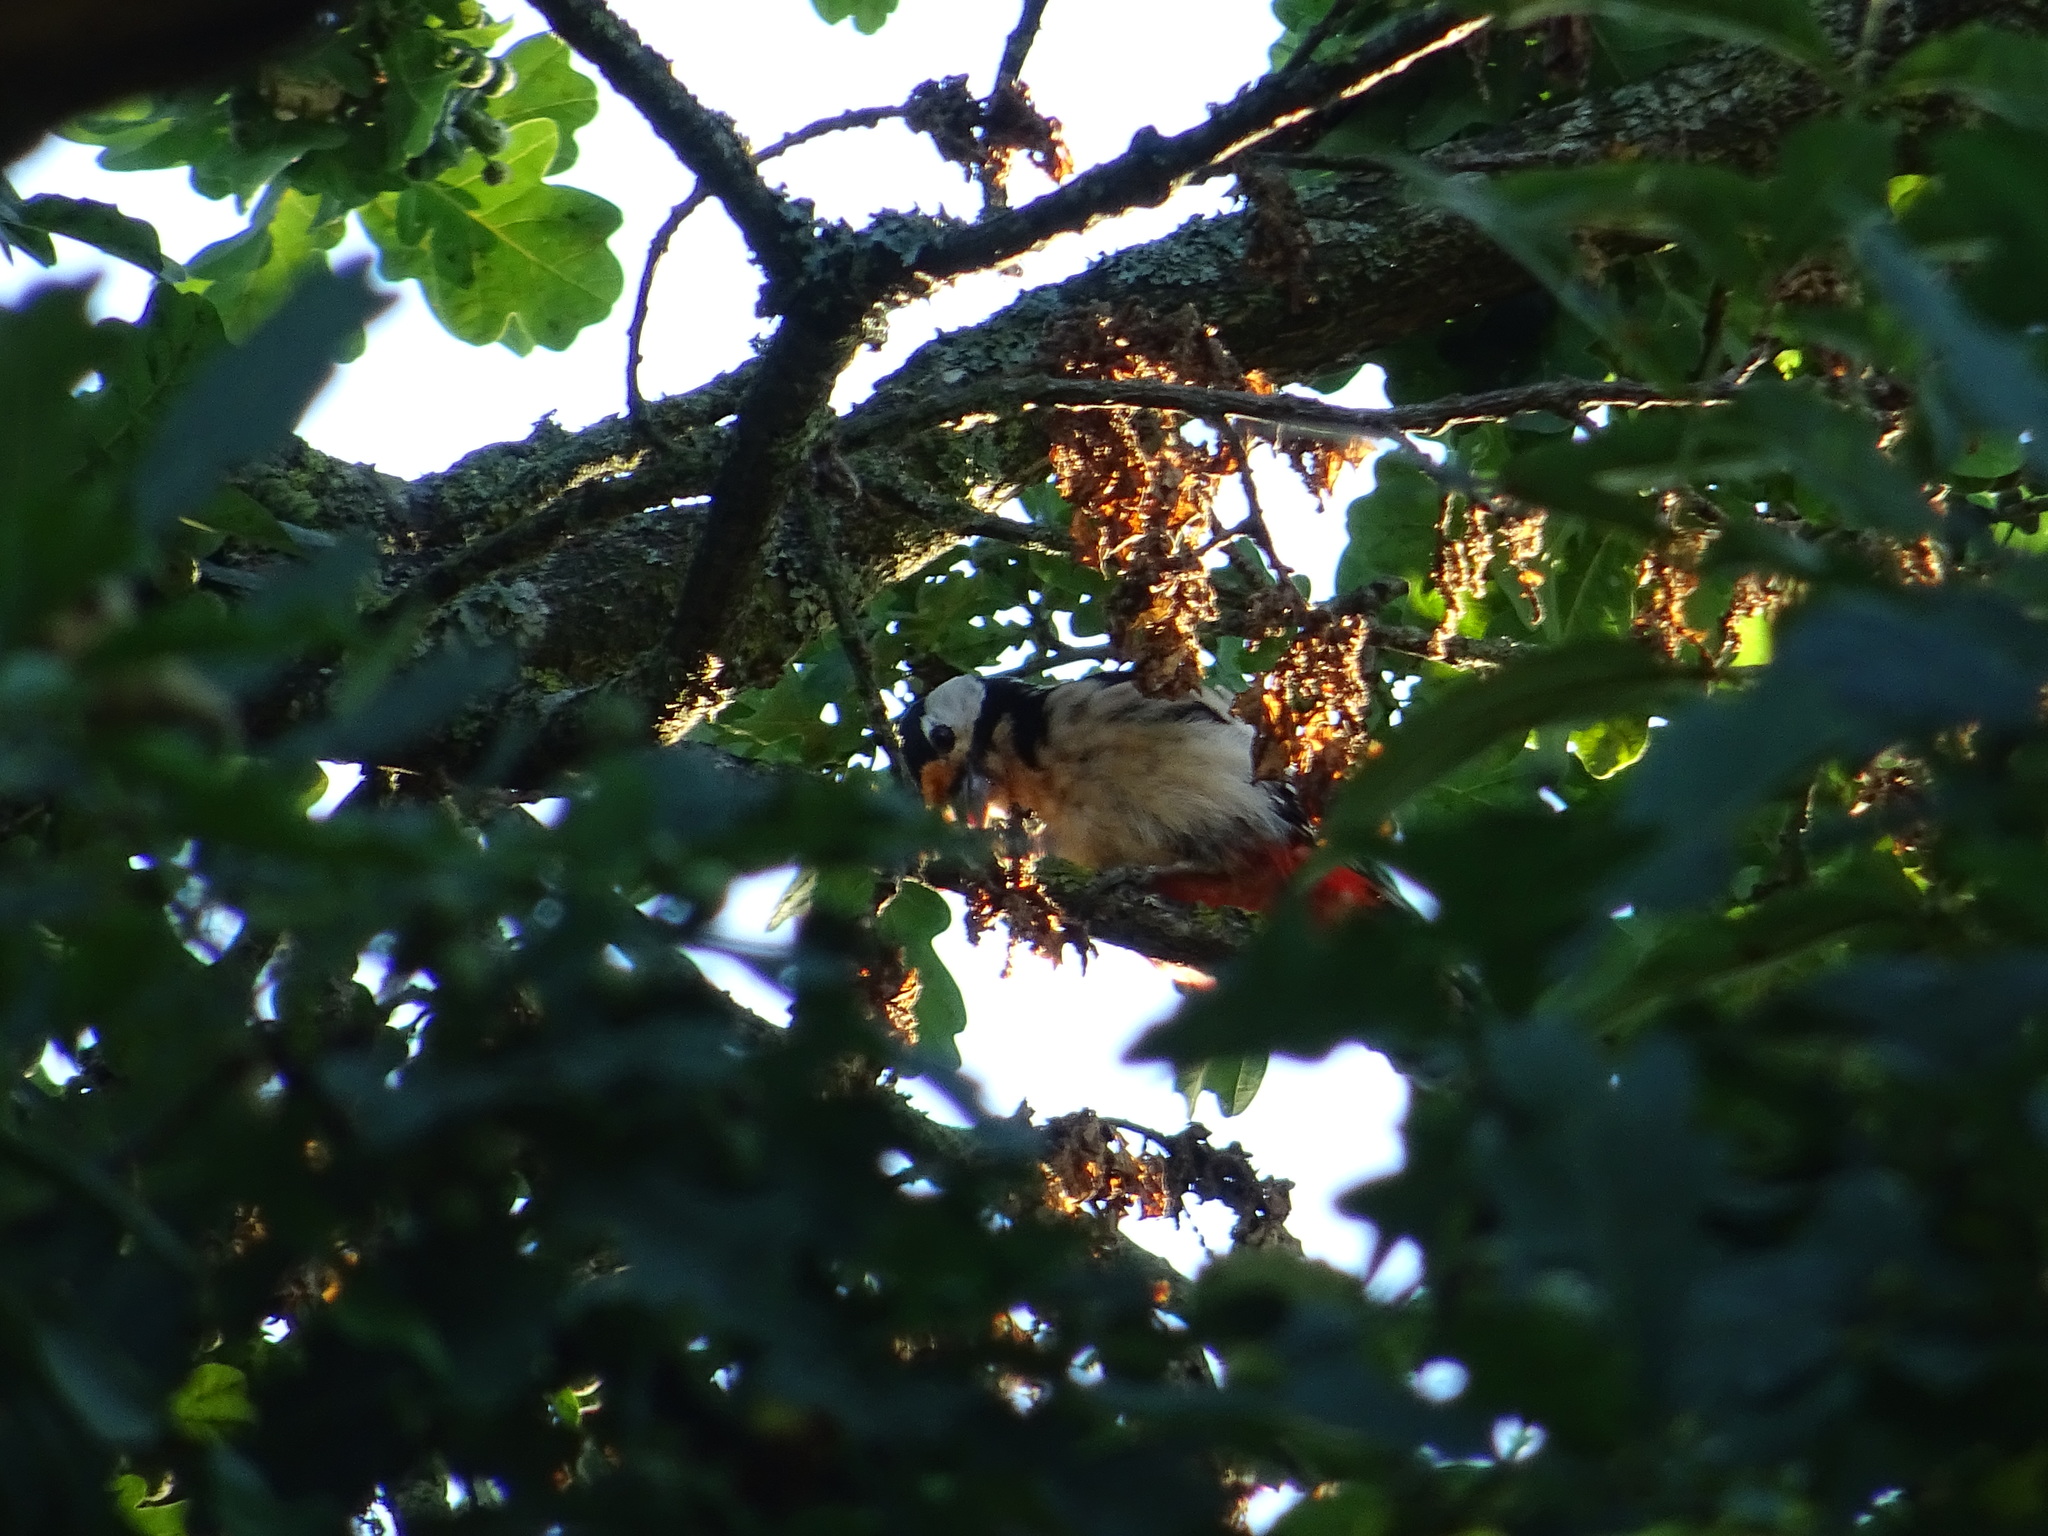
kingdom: Animalia
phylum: Chordata
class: Aves
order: Piciformes
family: Picidae
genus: Dendrocopos
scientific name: Dendrocopos major
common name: Great spotted woodpecker
